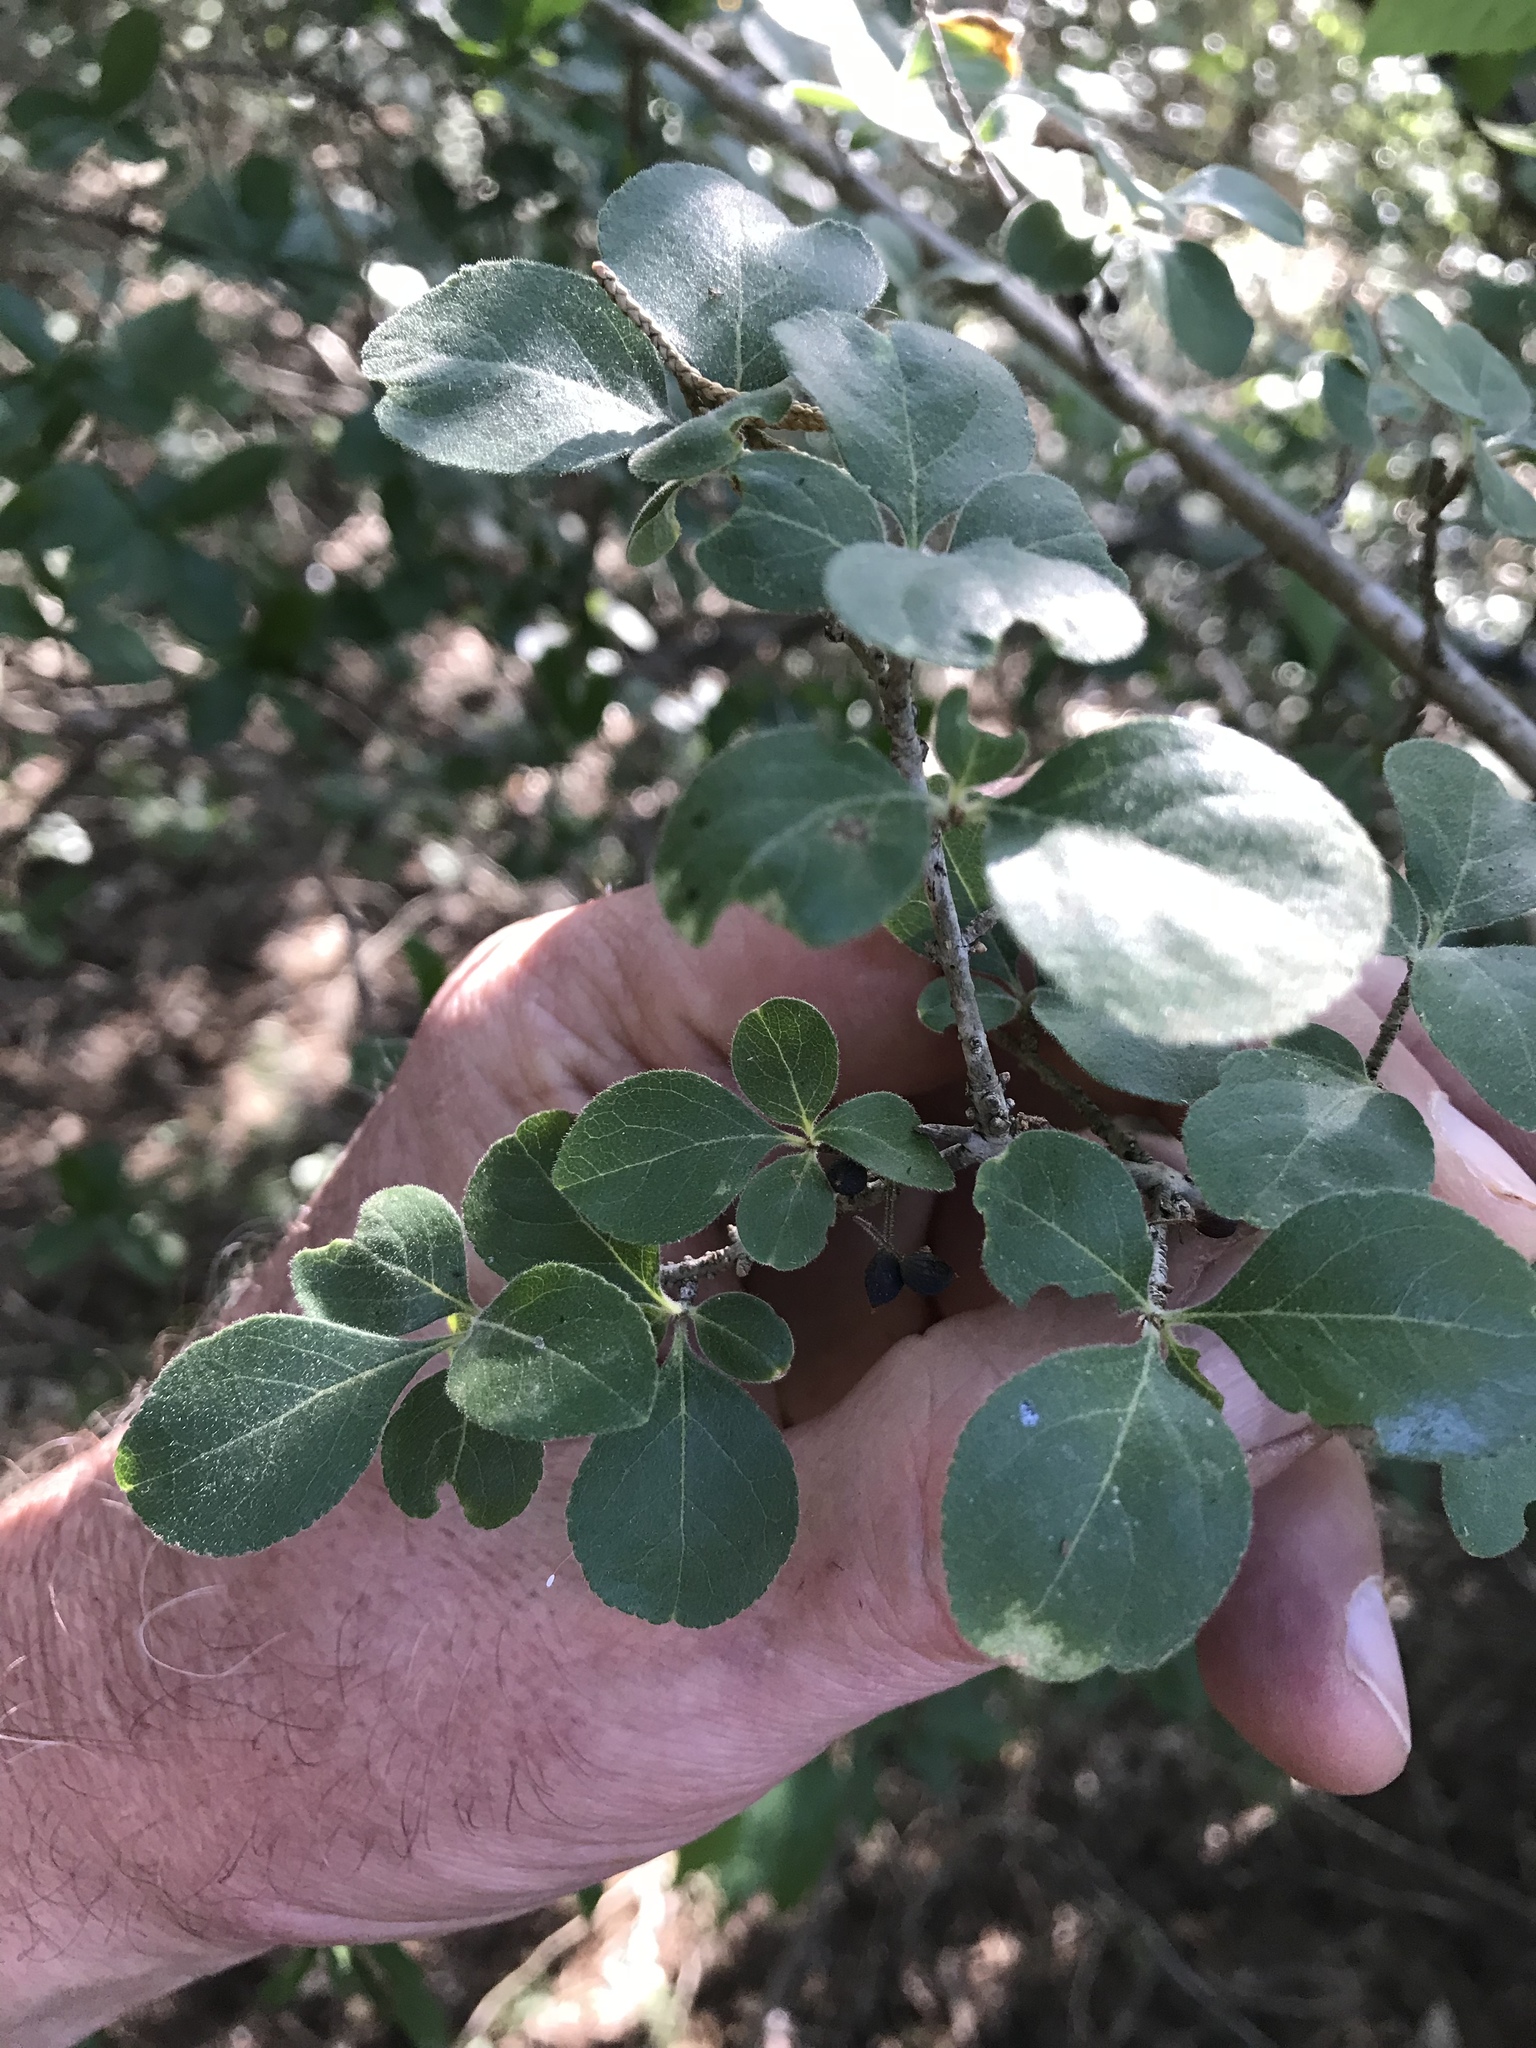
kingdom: Plantae
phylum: Tracheophyta
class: Magnoliopsida
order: Lamiales
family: Oleaceae
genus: Forestiera
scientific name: Forestiera pubescens
